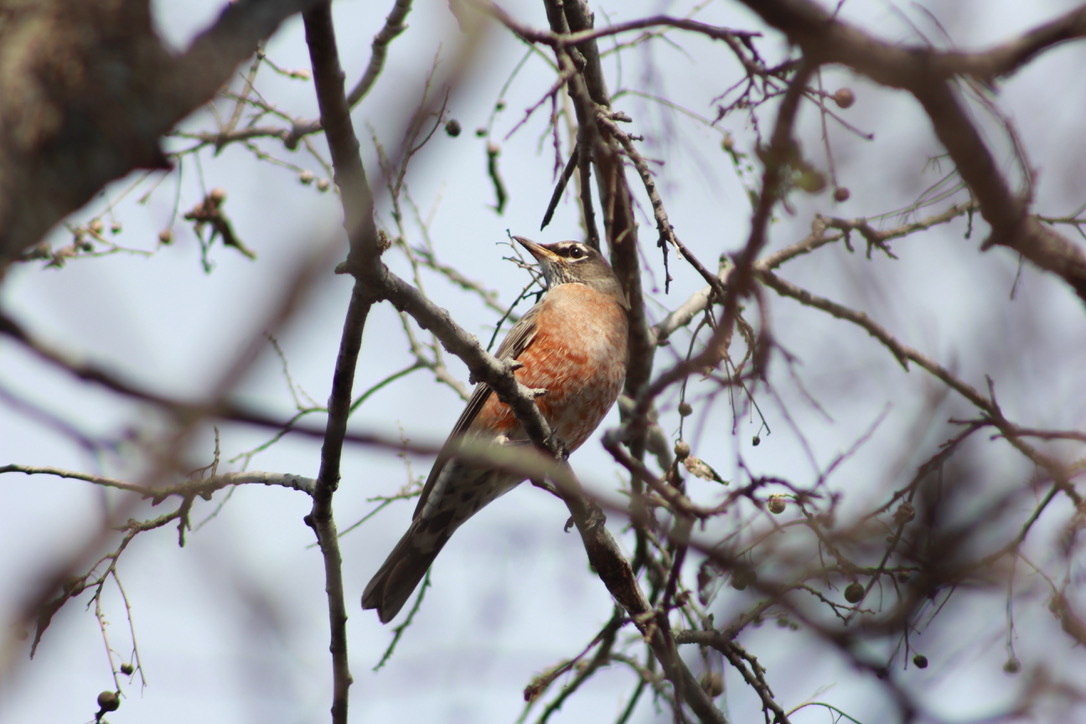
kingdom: Animalia
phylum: Chordata
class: Aves
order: Passeriformes
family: Turdidae
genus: Turdus
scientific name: Turdus migratorius
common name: American robin
